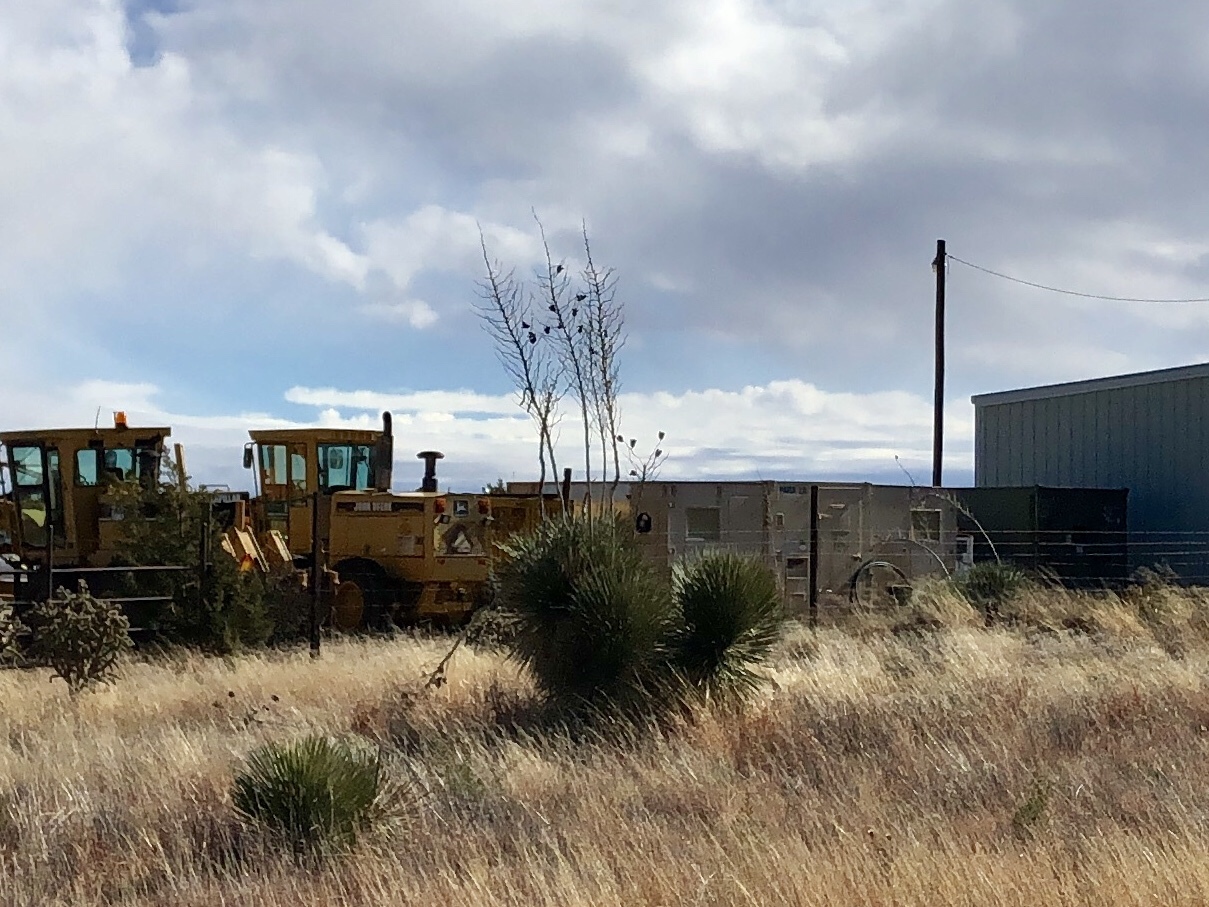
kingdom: Plantae
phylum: Tracheophyta
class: Liliopsida
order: Asparagales
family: Asparagaceae
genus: Yucca
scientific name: Yucca elata
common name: Palmella
